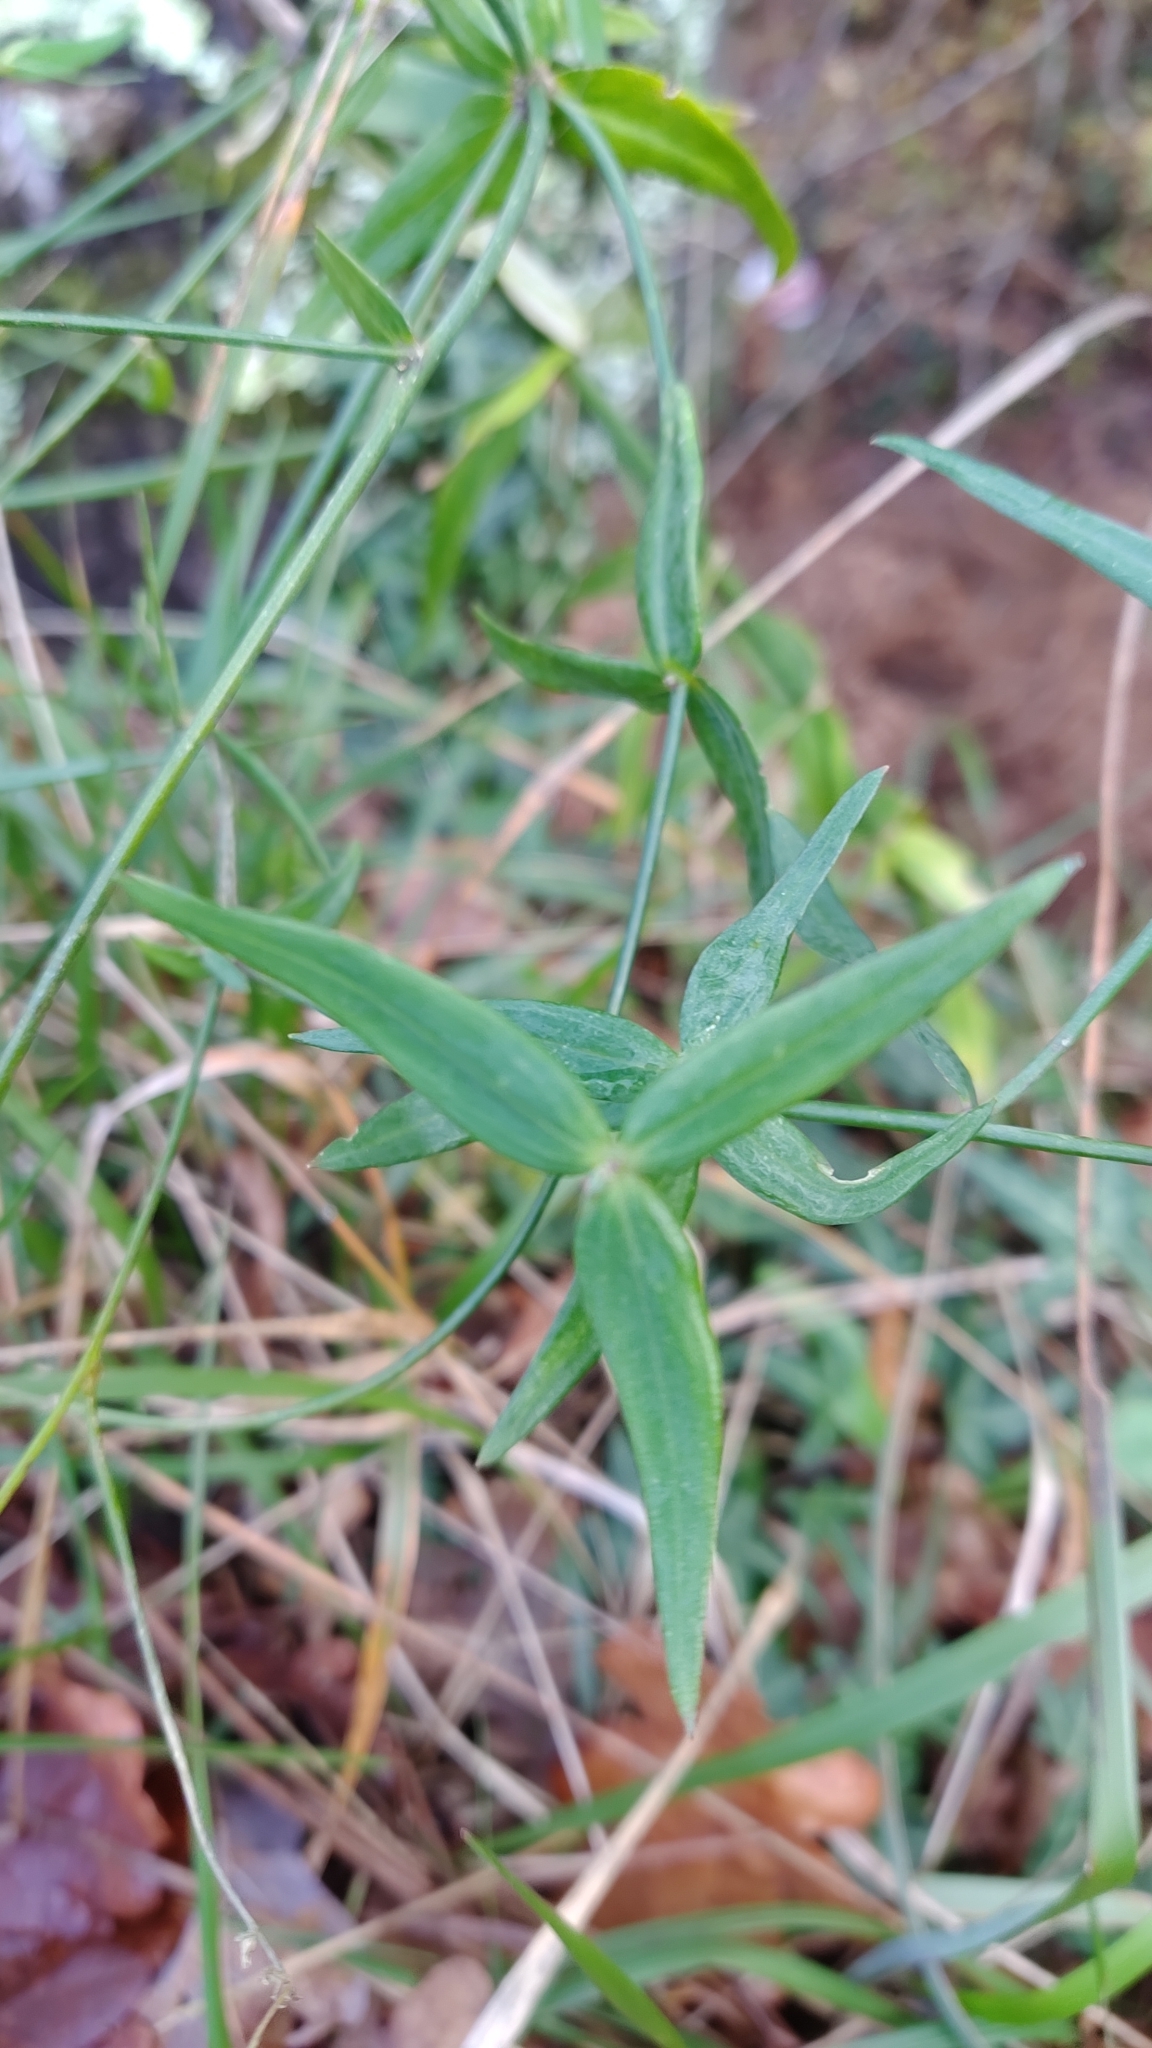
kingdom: Plantae
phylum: Tracheophyta
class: Magnoliopsida
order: Lamiales
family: Plantaginaceae
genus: Linaria
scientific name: Linaria triornithophora
